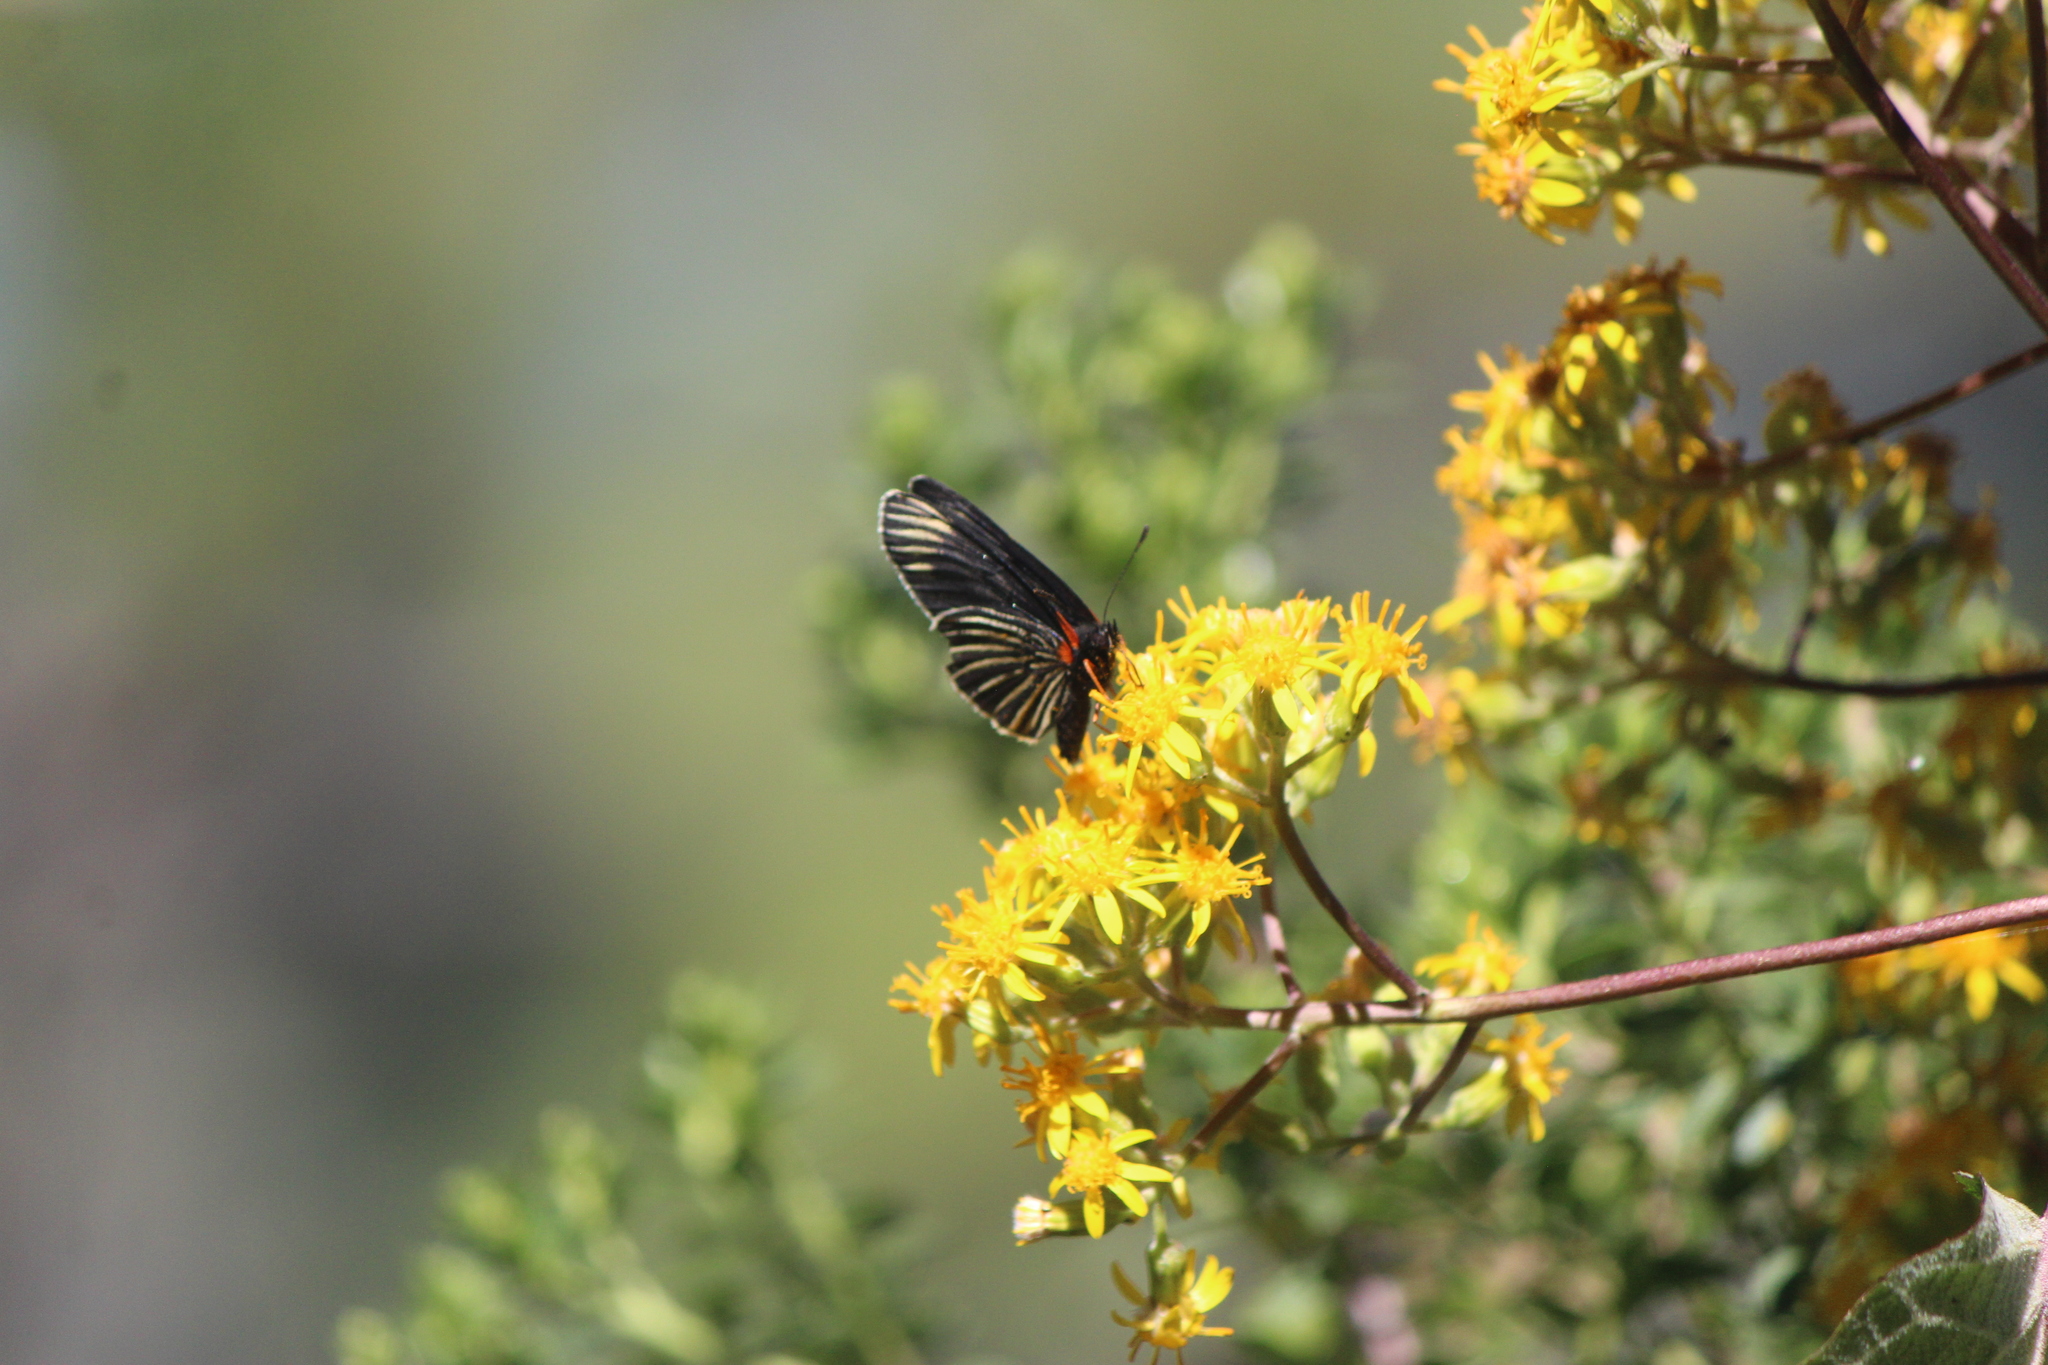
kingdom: Animalia
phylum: Arthropoda
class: Insecta
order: Lepidoptera
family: Nymphalidae
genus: Chlosyne
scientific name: Chlosyne ehrenbergii
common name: White-rayed patch
